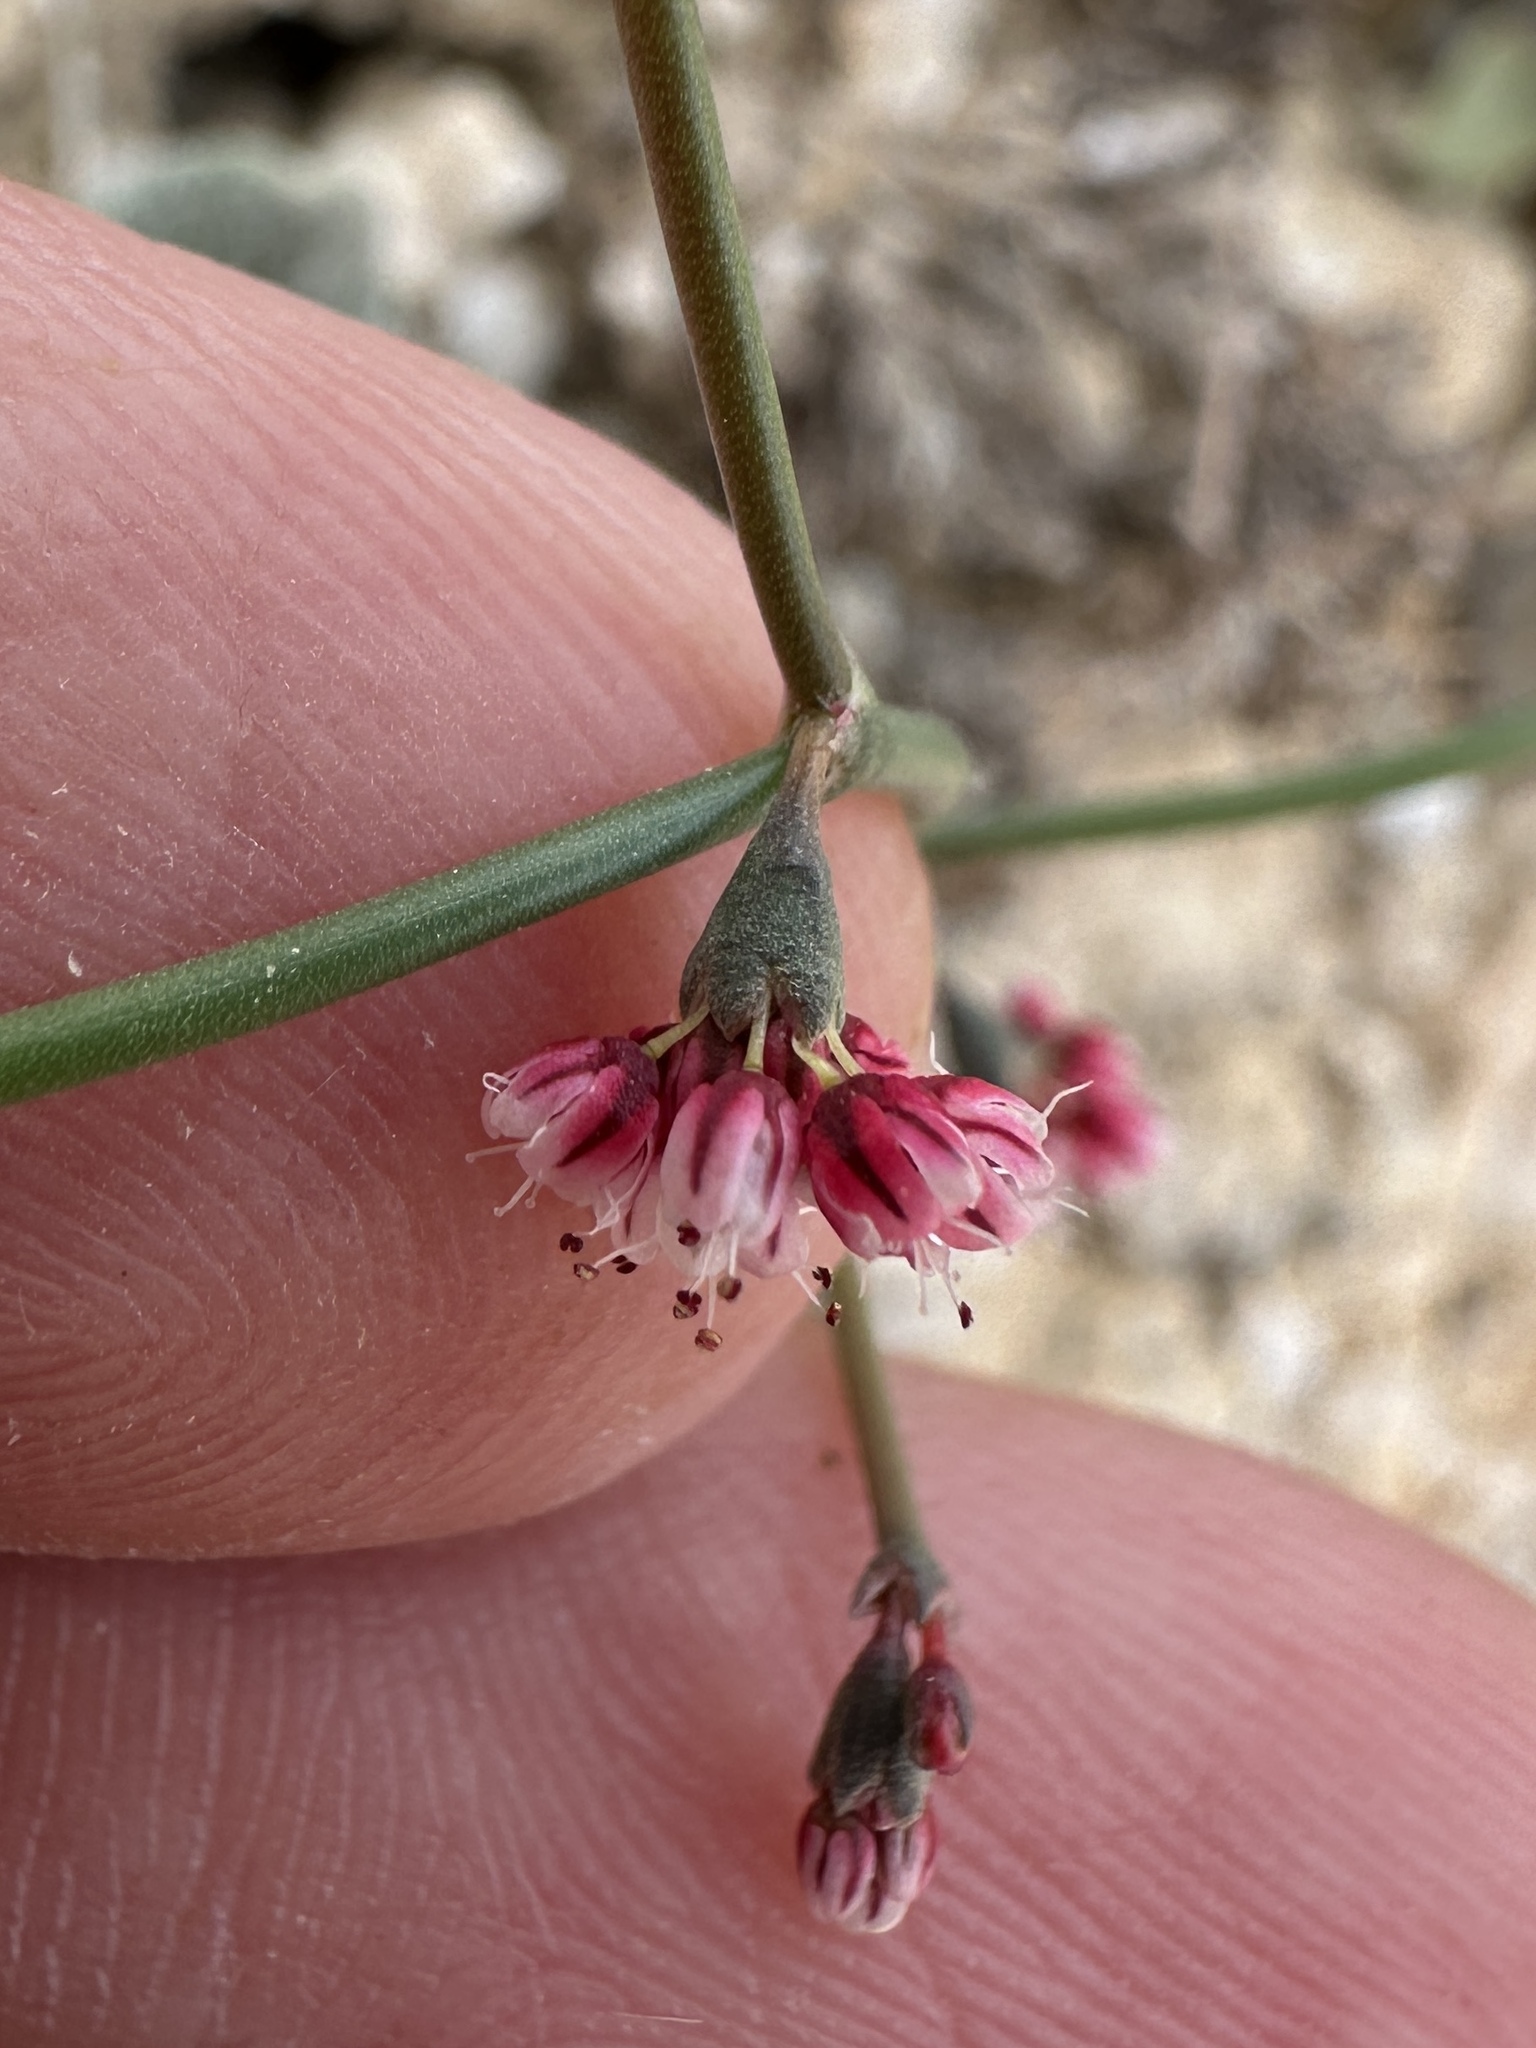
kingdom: Plantae
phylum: Tracheophyta
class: Magnoliopsida
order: Caryophyllales
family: Polygonaceae
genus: Eriogonum
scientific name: Eriogonum deflexum
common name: Skeleton-weed
